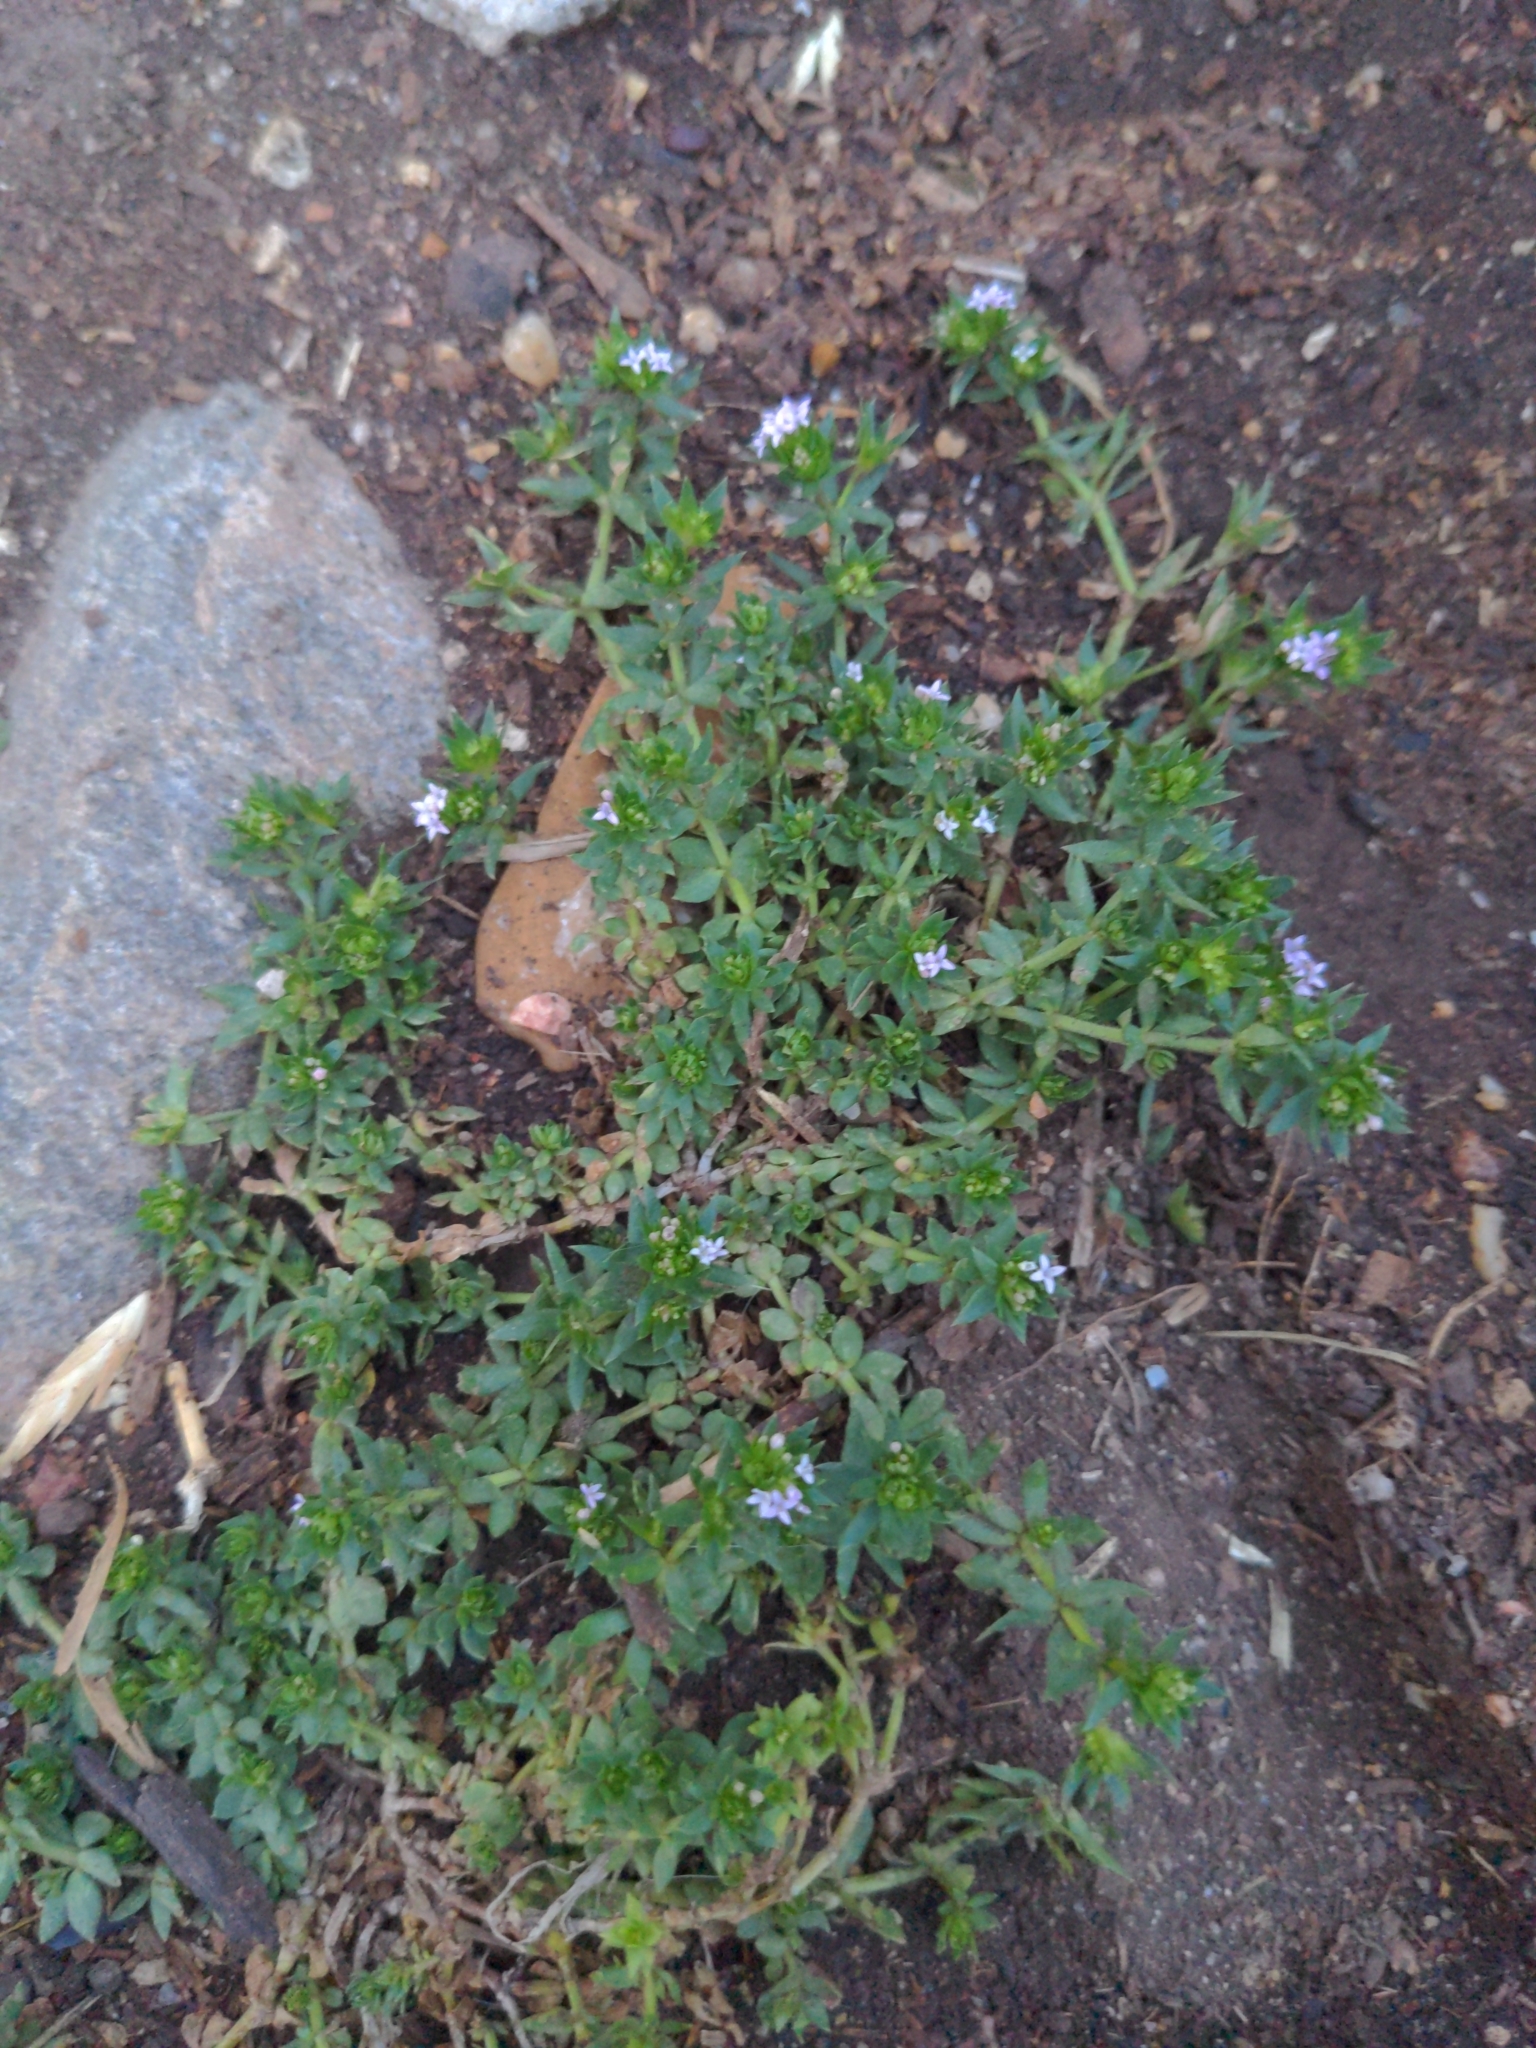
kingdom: Plantae
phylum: Tracheophyta
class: Magnoliopsida
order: Gentianales
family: Rubiaceae
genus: Sherardia
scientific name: Sherardia arvensis
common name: Field madder
